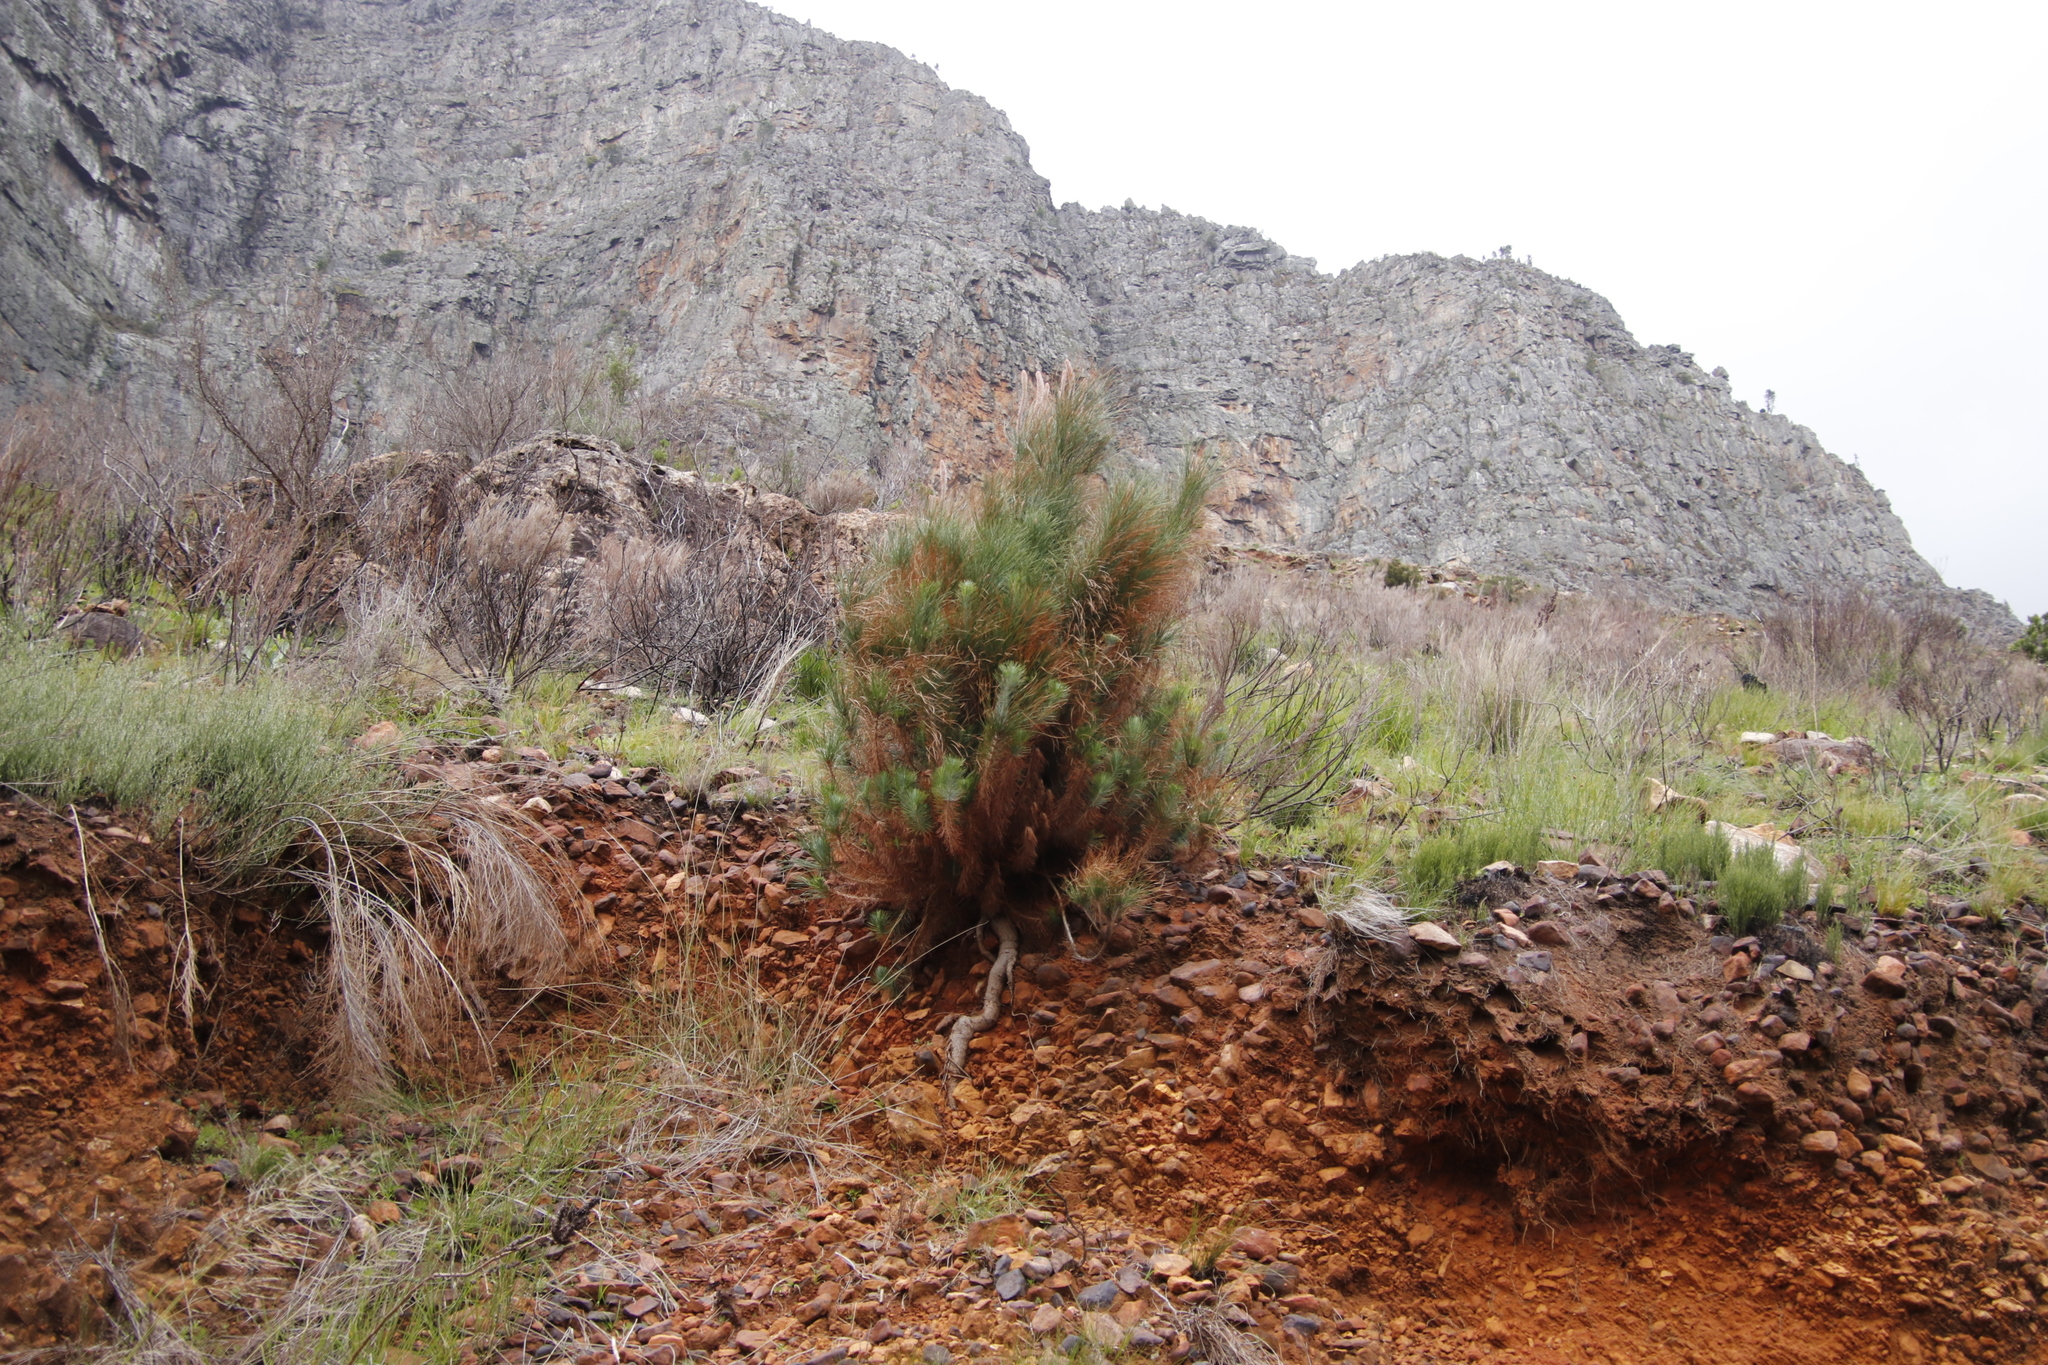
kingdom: Plantae
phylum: Tracheophyta
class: Pinopsida
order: Pinales
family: Pinaceae
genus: Pinus
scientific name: Pinus canariensis
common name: Canary islands pine
